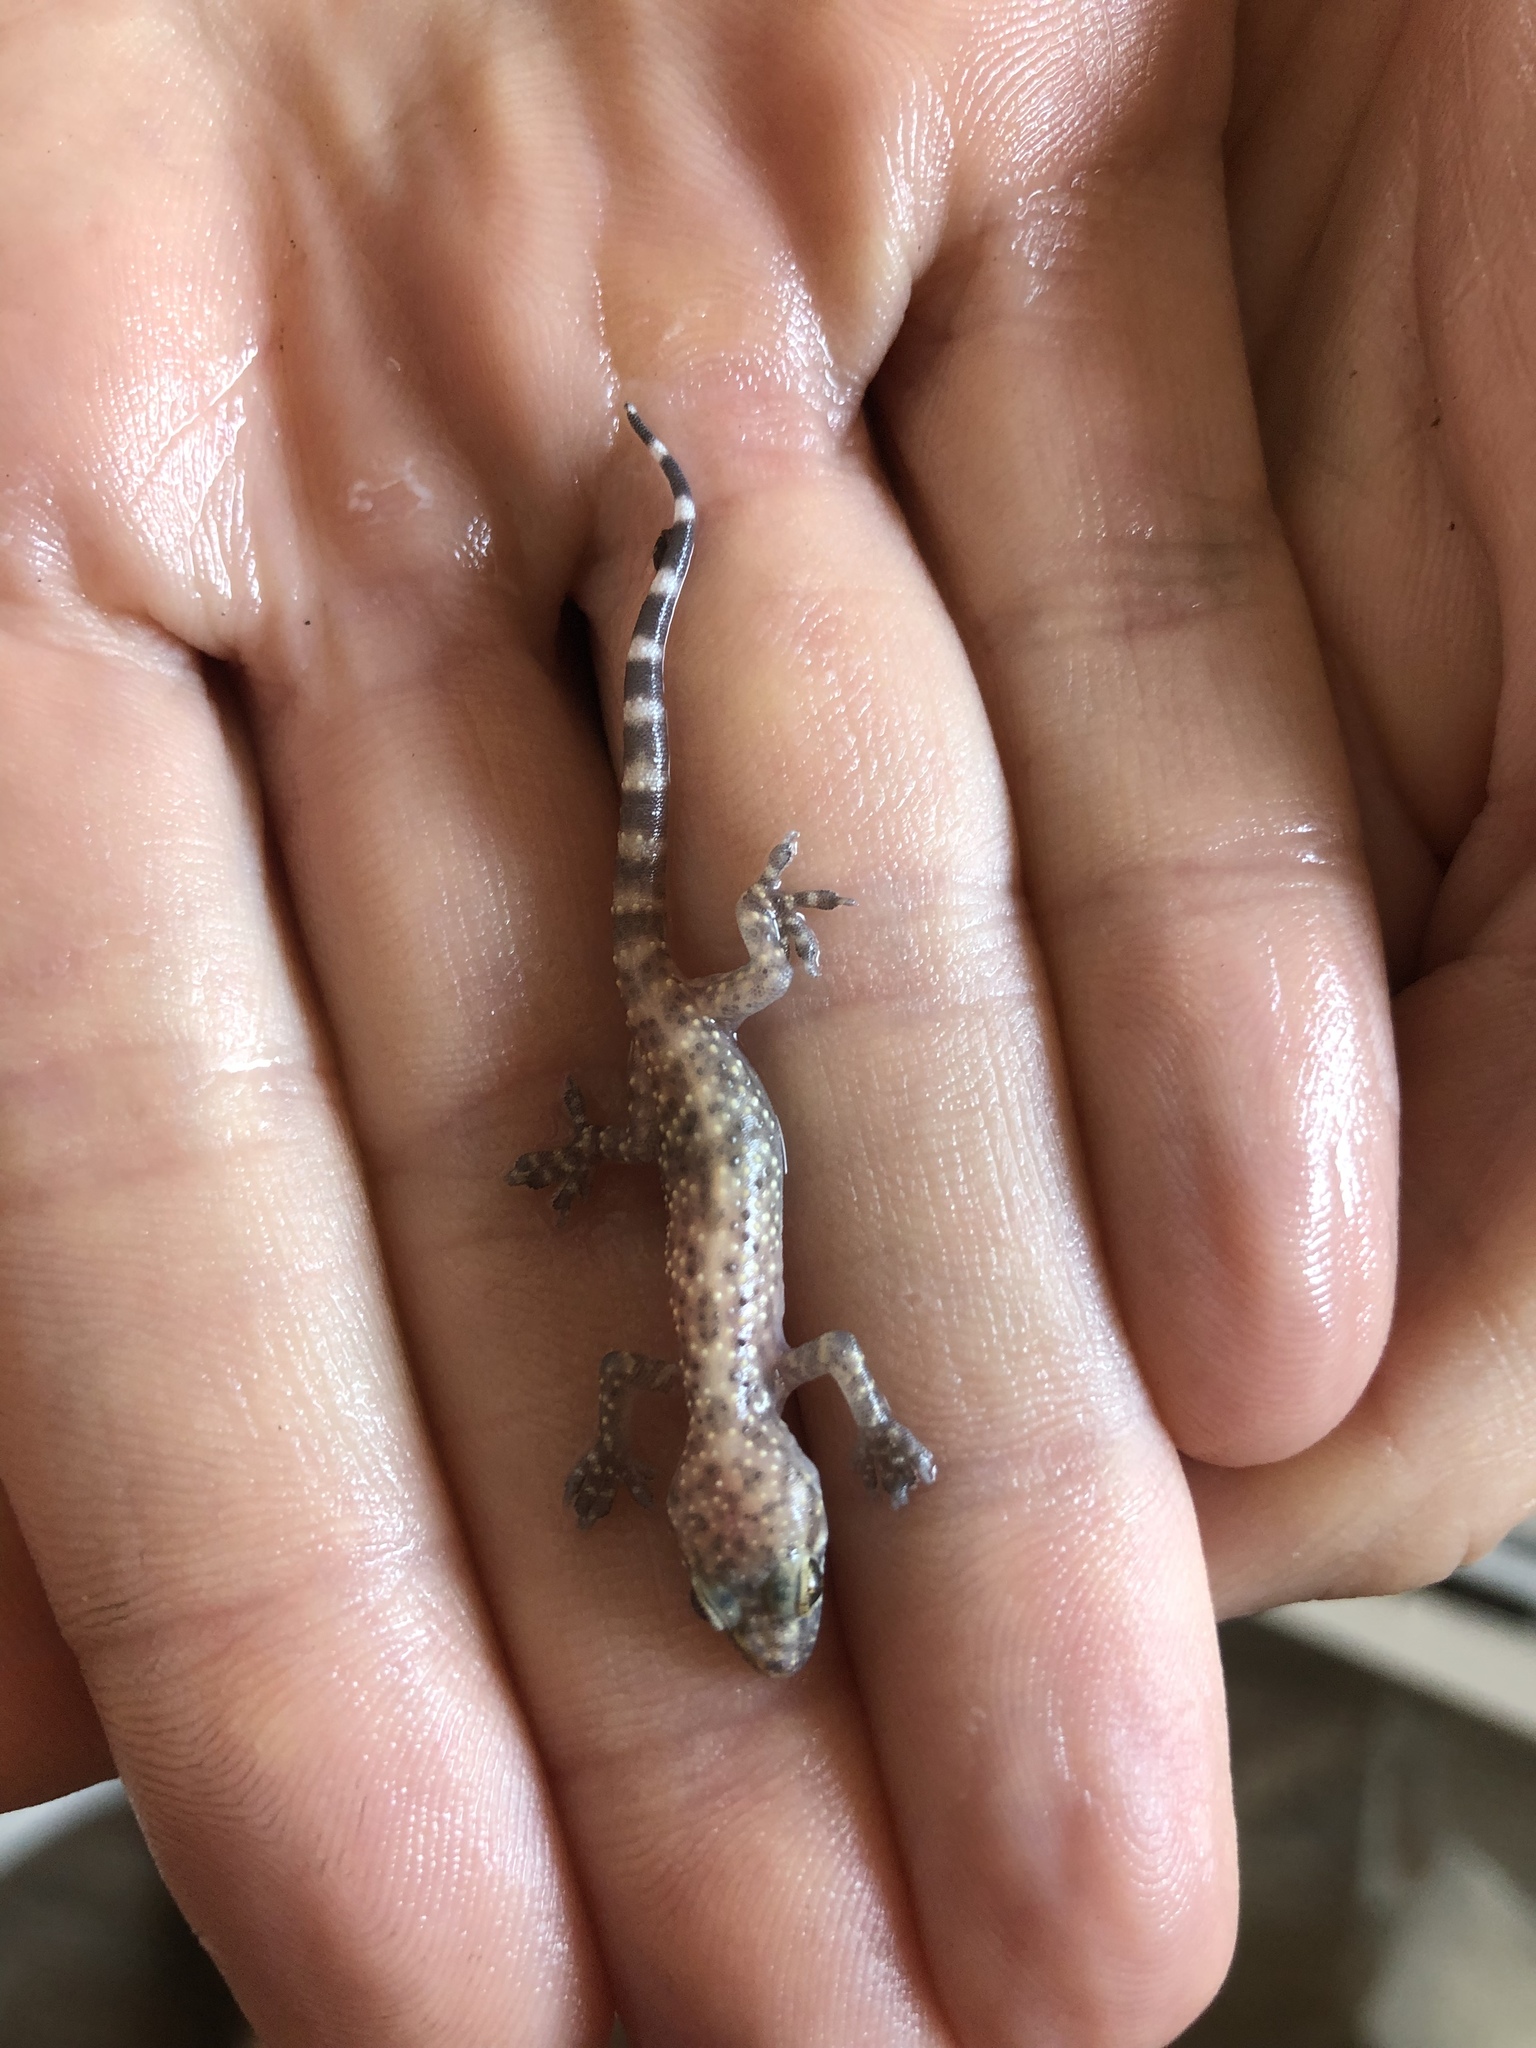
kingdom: Animalia
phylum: Chordata
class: Squamata
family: Gekkonidae
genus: Hemidactylus
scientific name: Hemidactylus turcicus
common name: Turkish gecko
